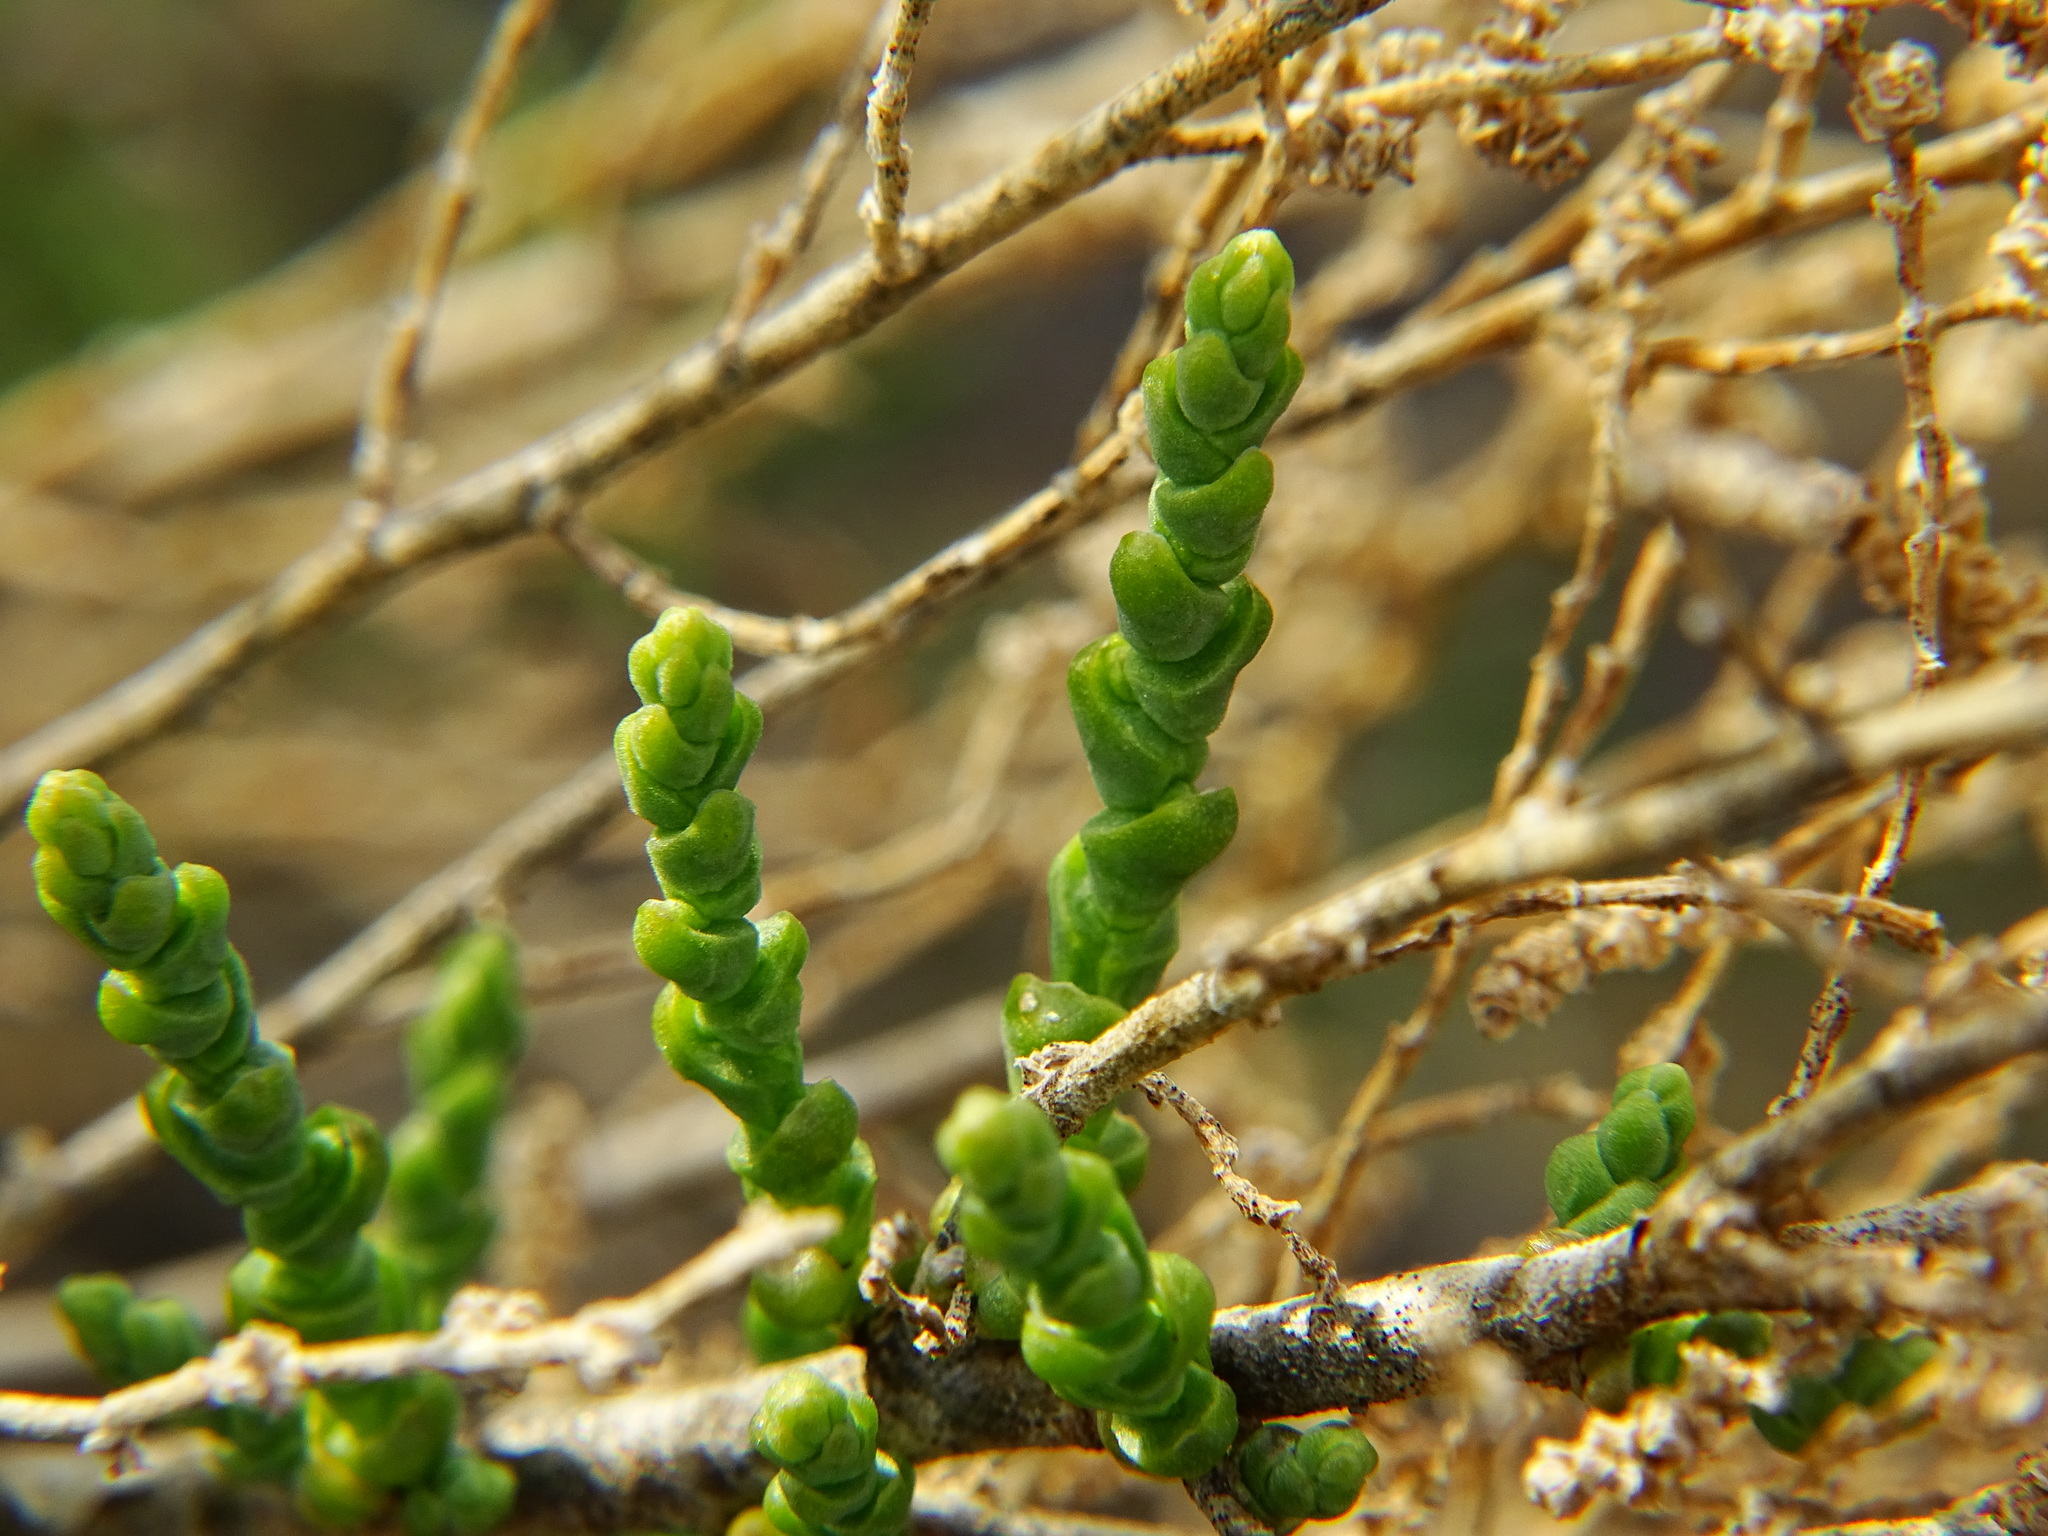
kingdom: Plantae
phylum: Tracheophyta
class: Magnoliopsida
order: Caryophyllales
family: Amaranthaceae
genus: Allenrolfea
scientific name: Allenrolfea occidentalis
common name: Iodine-bush
